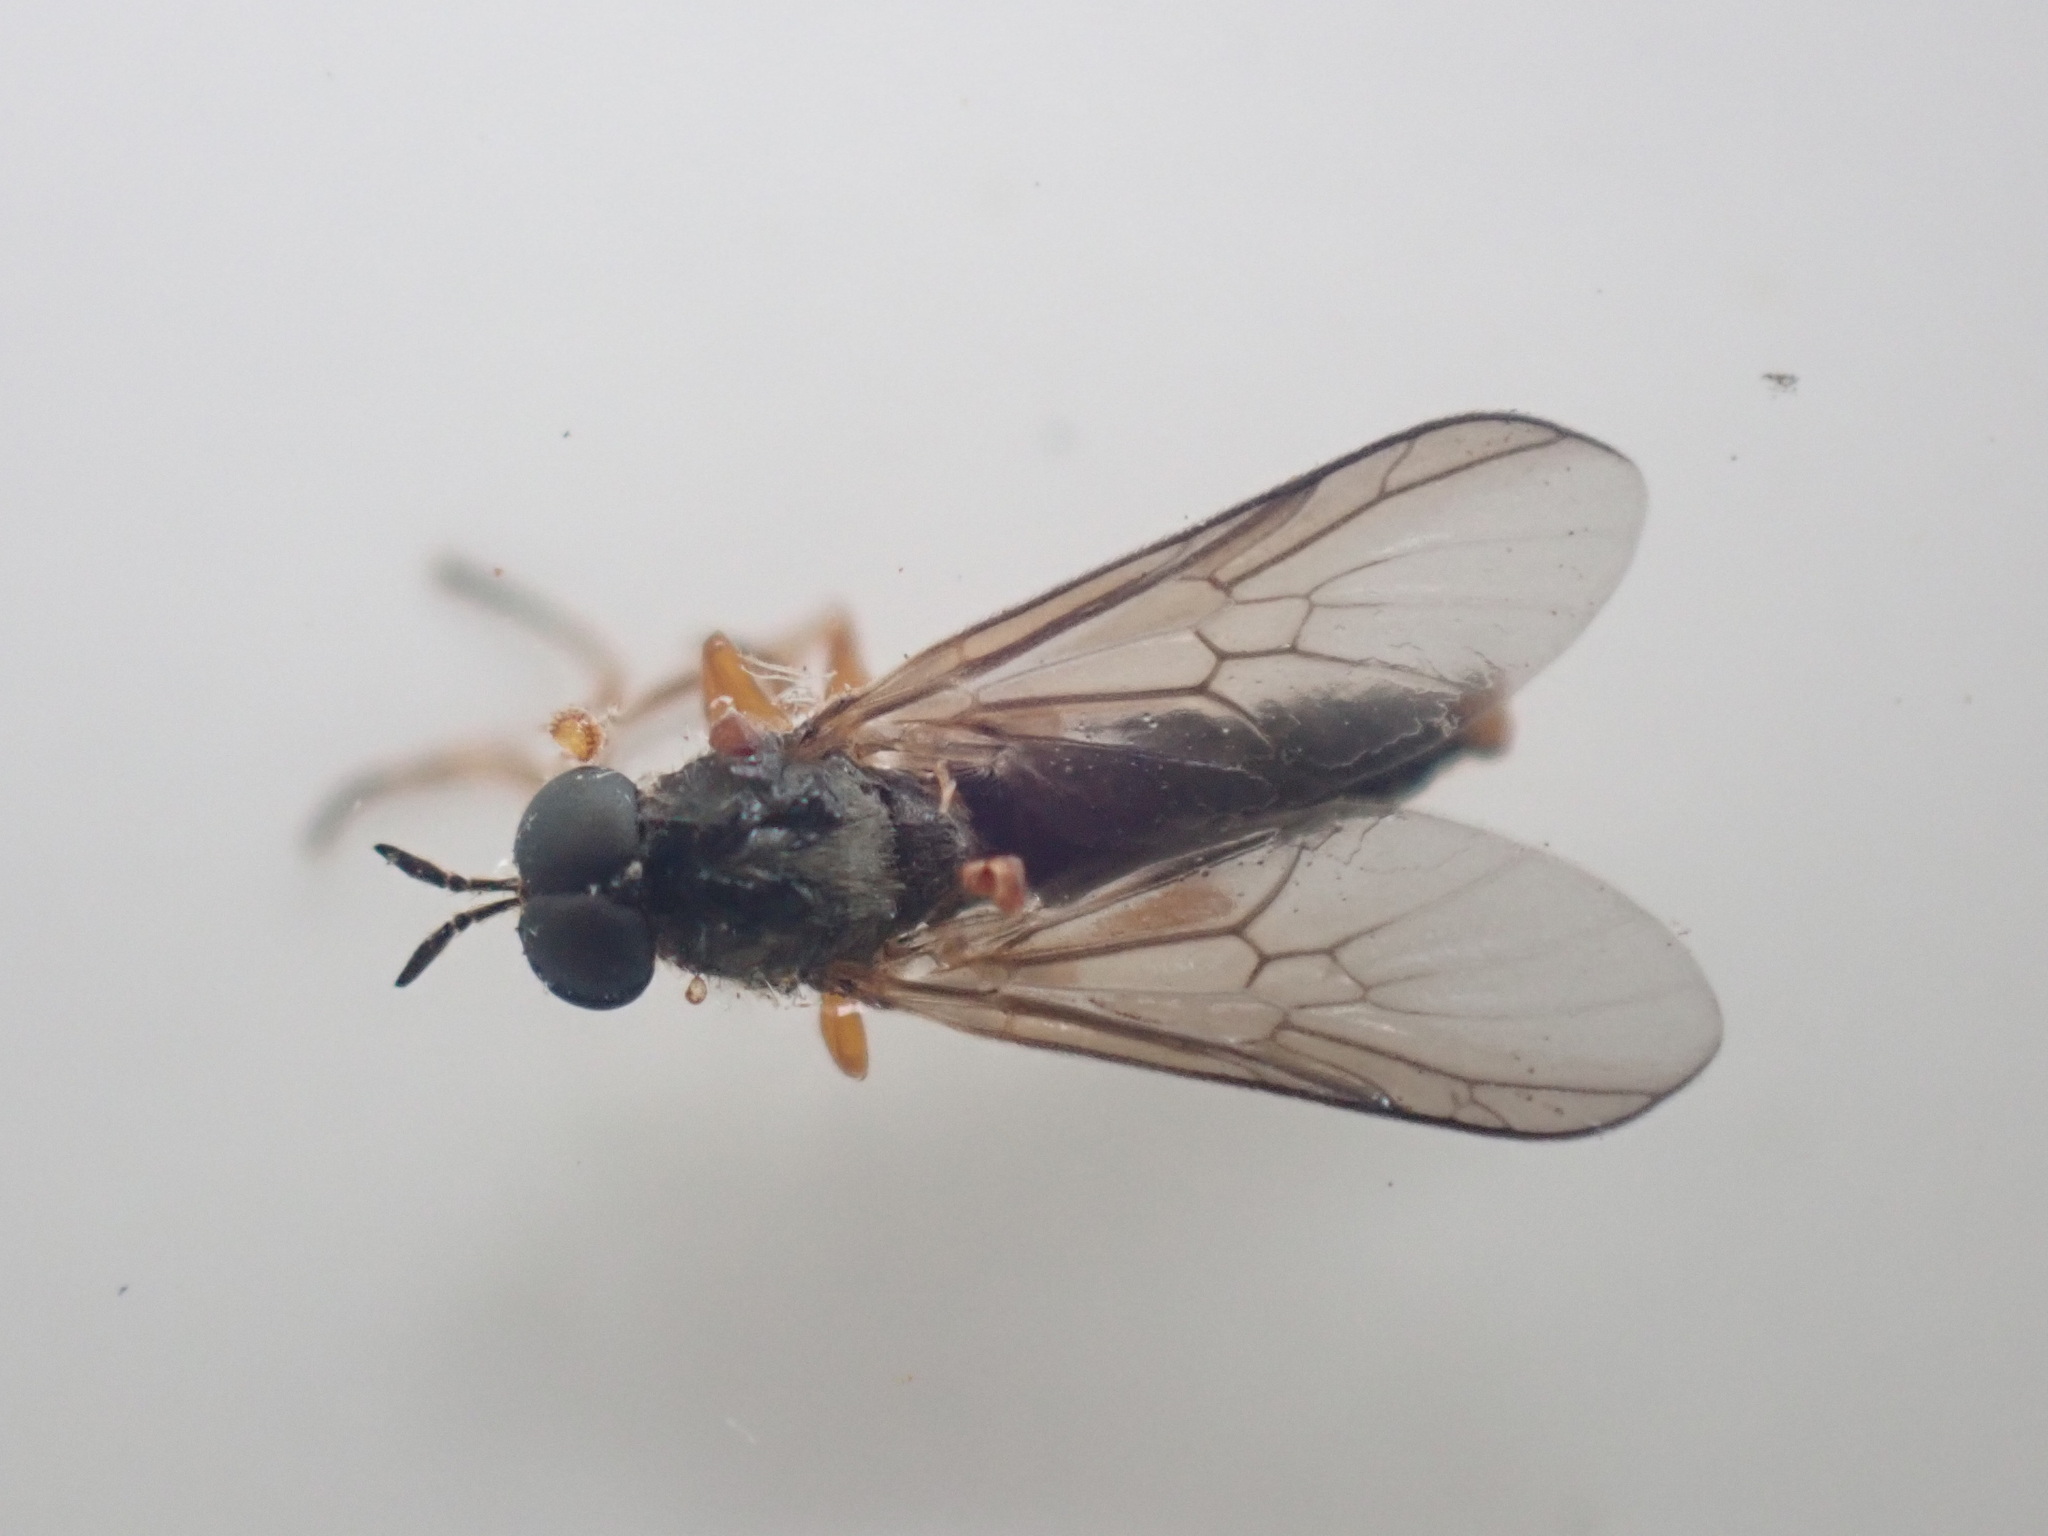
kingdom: Animalia
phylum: Arthropoda
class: Insecta
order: Diptera
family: Stratiomyidae
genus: Inopus
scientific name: Inopus rubriceps
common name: Soldier fly
